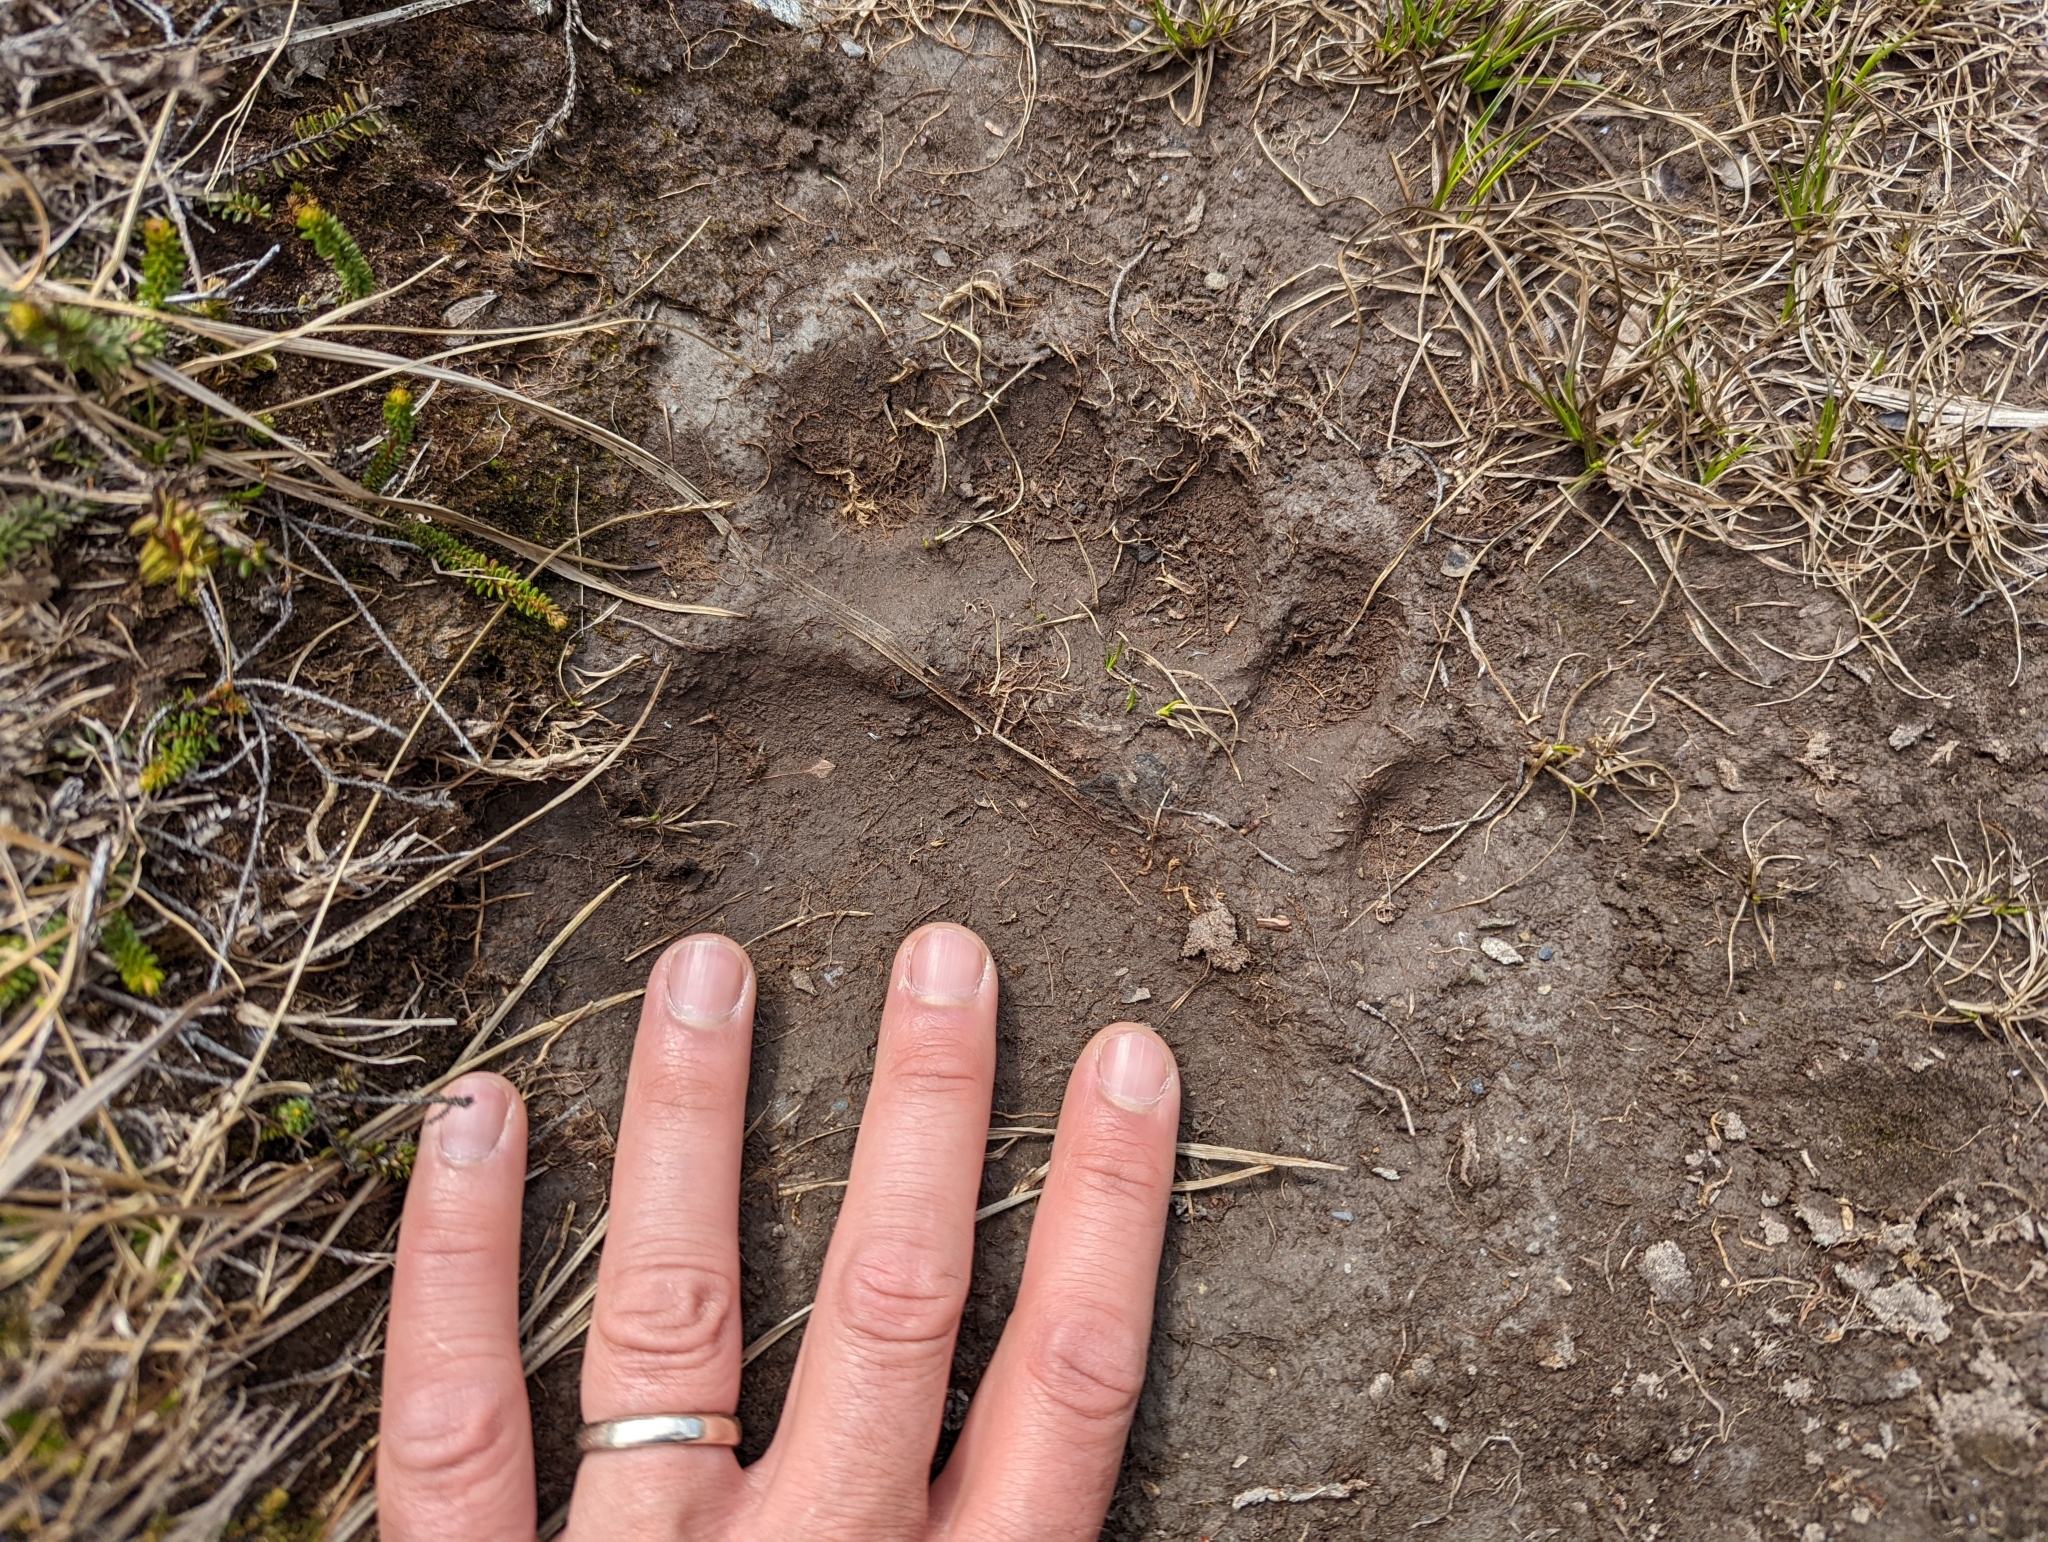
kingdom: Animalia
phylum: Chordata
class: Mammalia
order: Carnivora
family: Ursidae
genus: Ursus
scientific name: Ursus americanus
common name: American black bear
